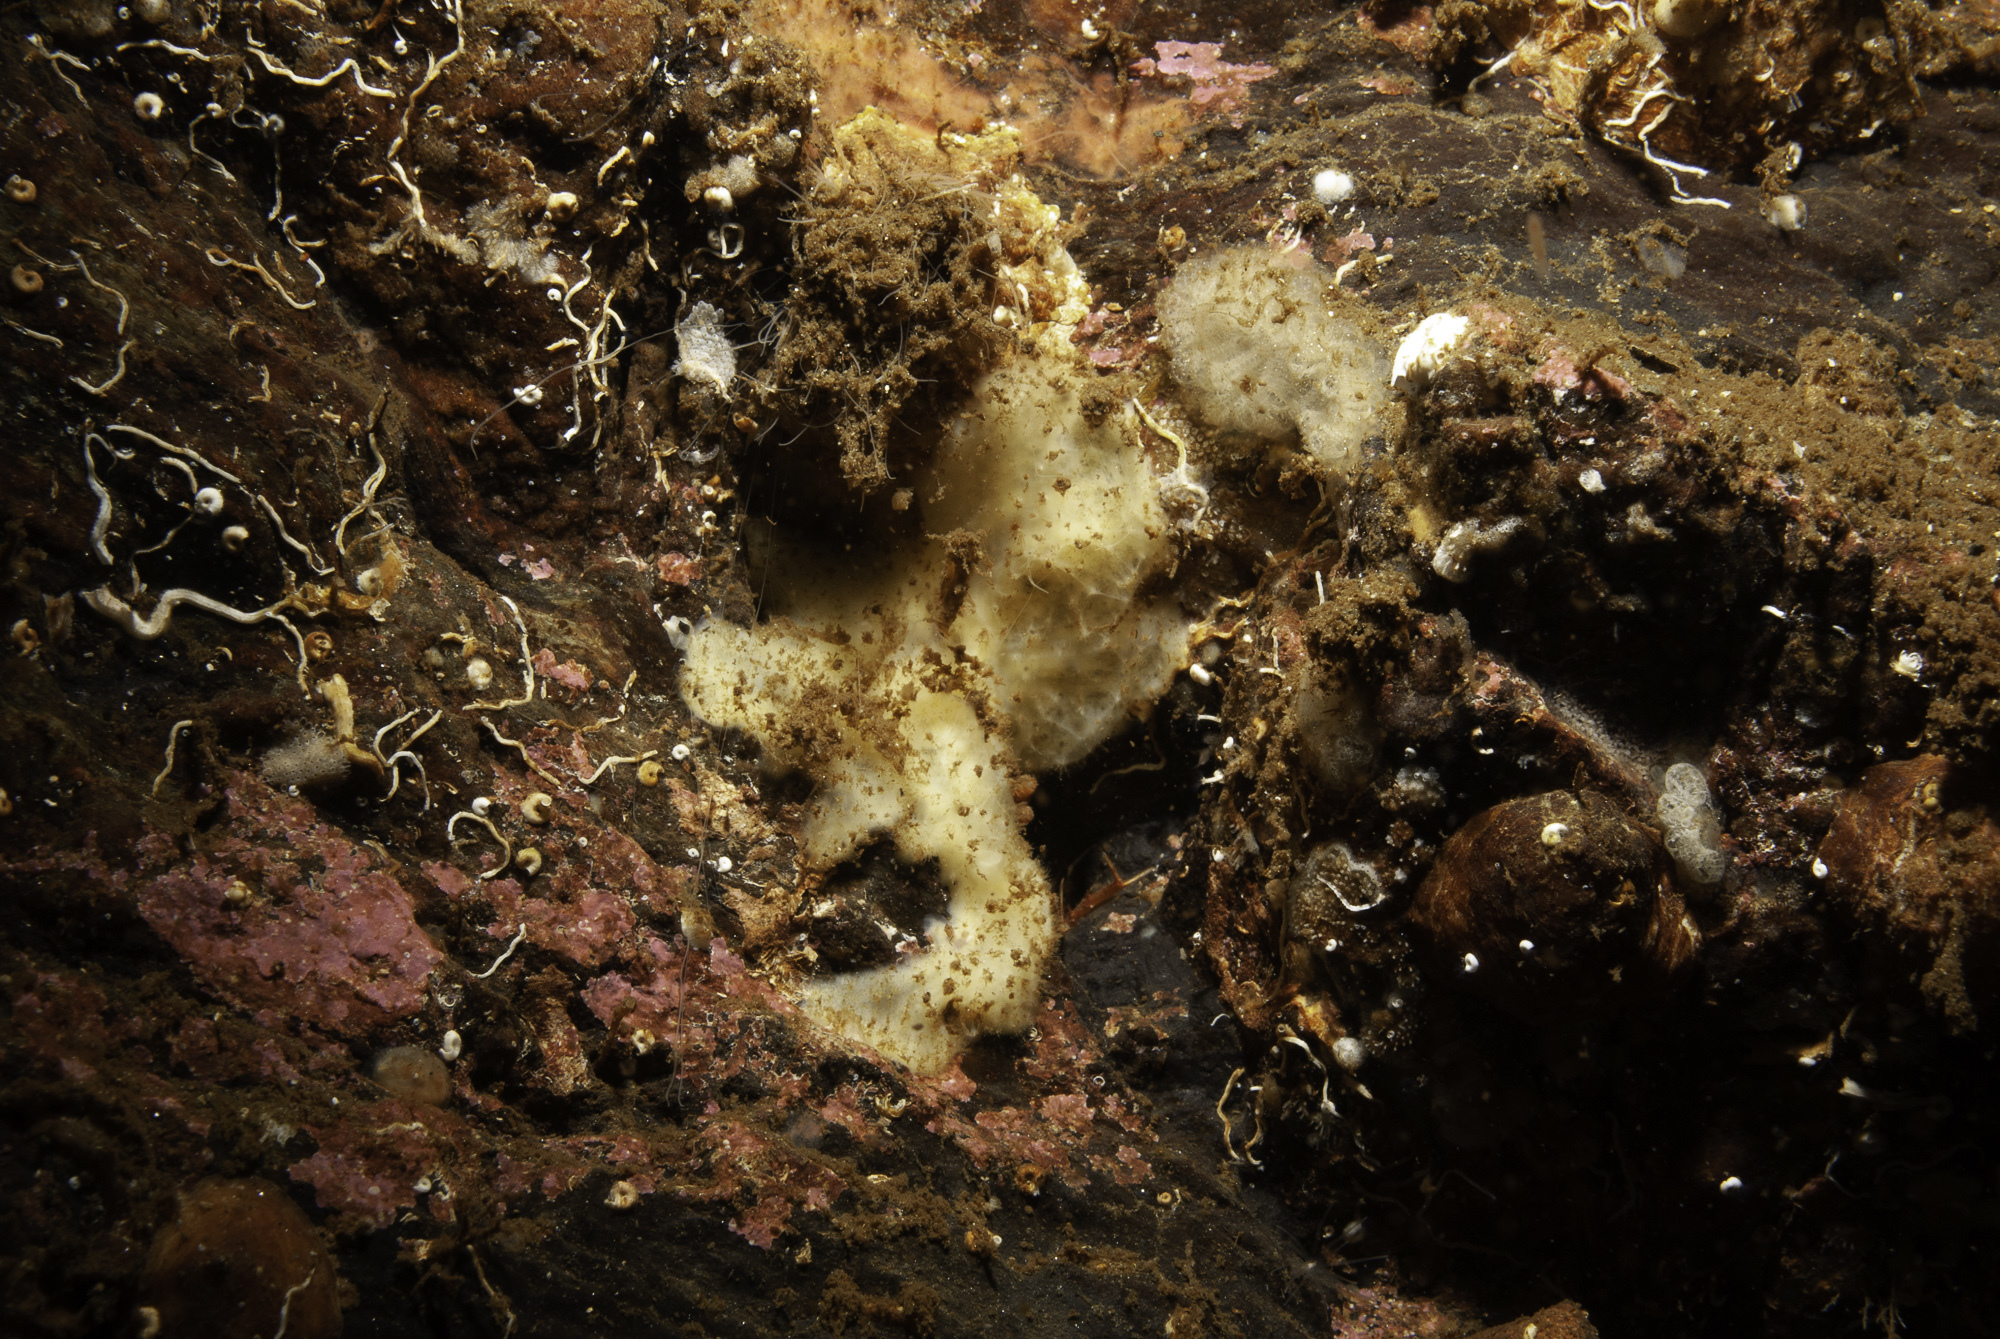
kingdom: Animalia
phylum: Porifera
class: Demospongiae
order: Axinellida
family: Stelligeridae
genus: Paratimea
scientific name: Paratimea loennbergi
